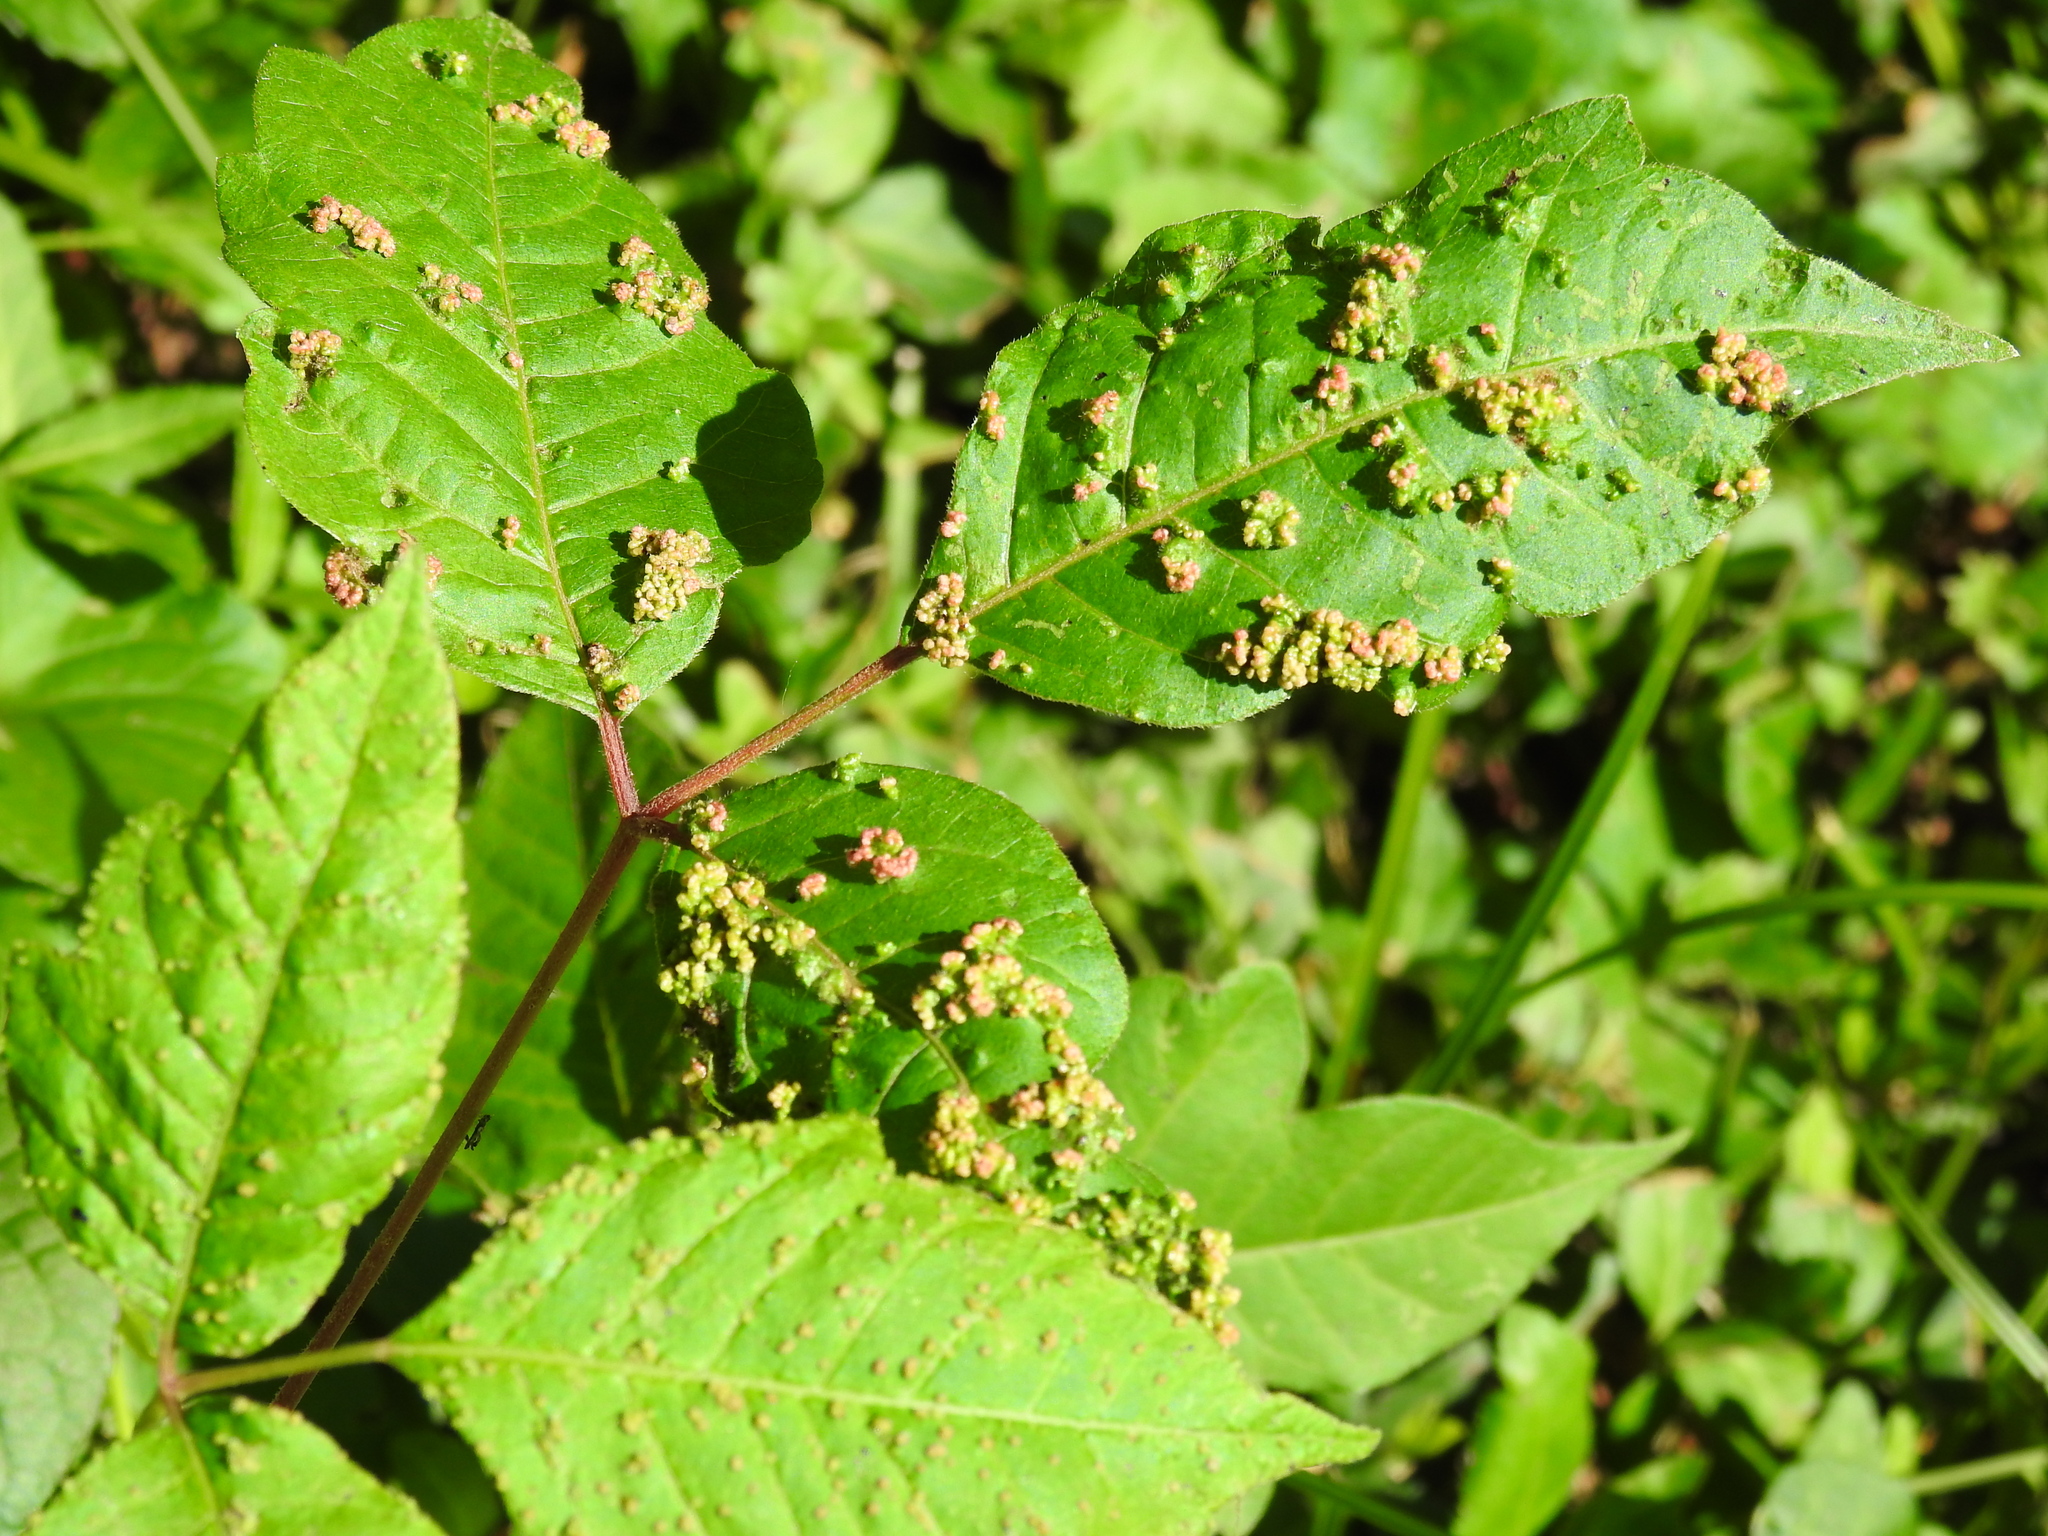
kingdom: Animalia
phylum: Arthropoda
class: Arachnida
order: Trombidiformes
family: Eriophyidae
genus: Aculops
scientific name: Aculops
